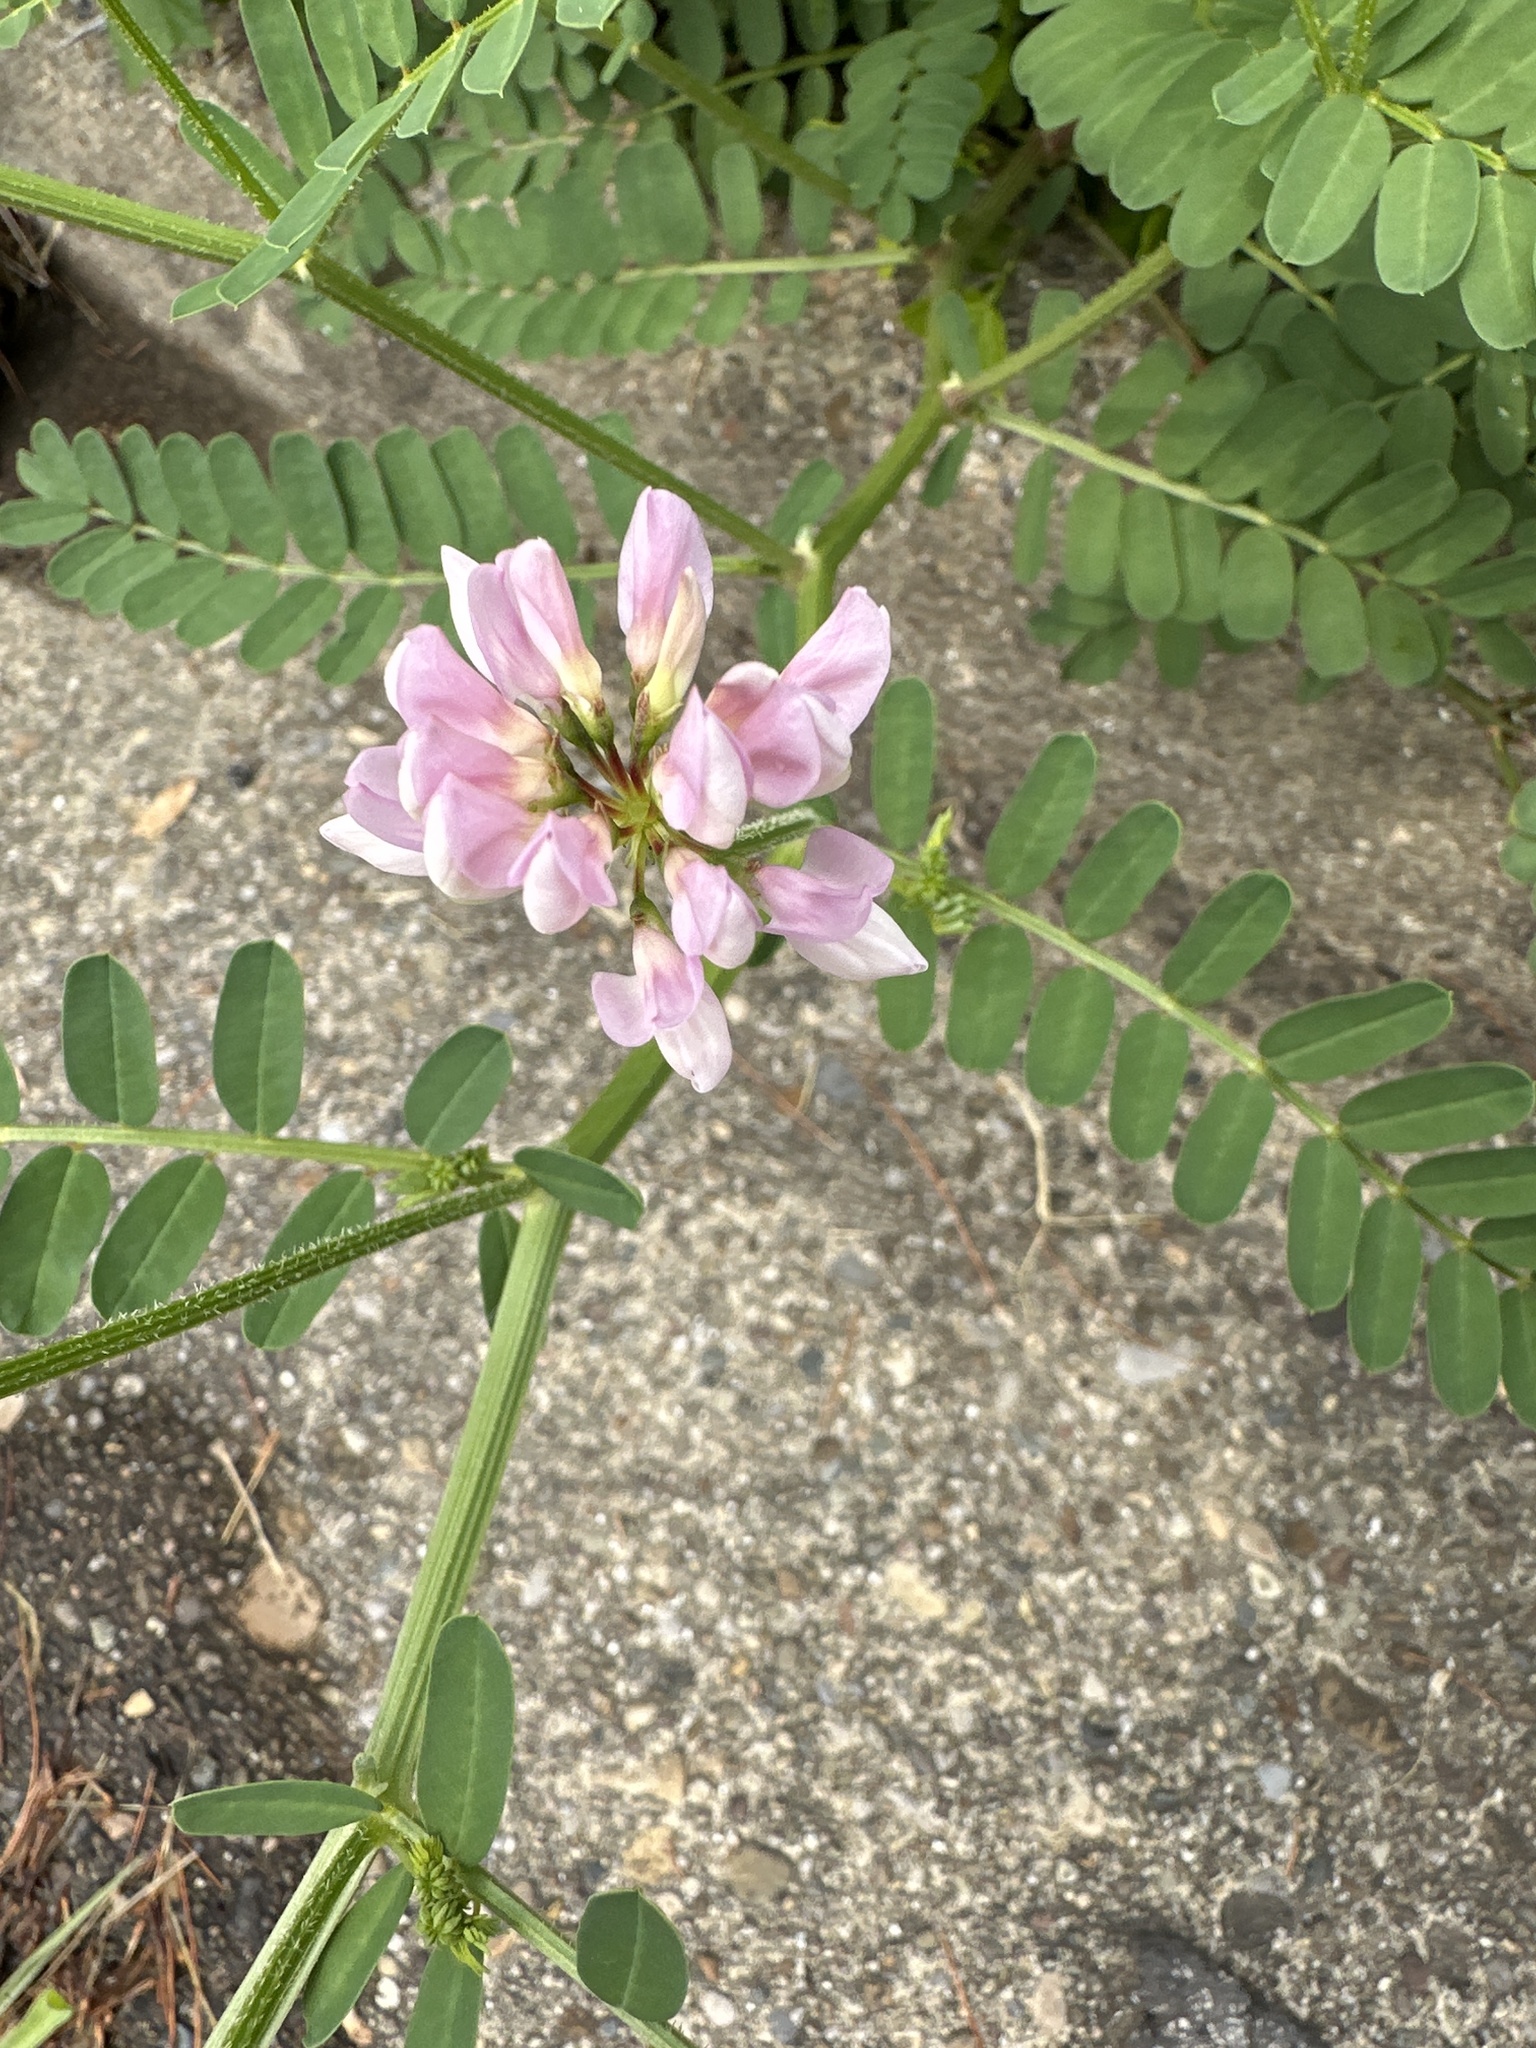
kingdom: Plantae
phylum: Tracheophyta
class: Magnoliopsida
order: Fabales
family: Fabaceae
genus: Coronilla
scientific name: Coronilla varia
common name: Crownvetch
